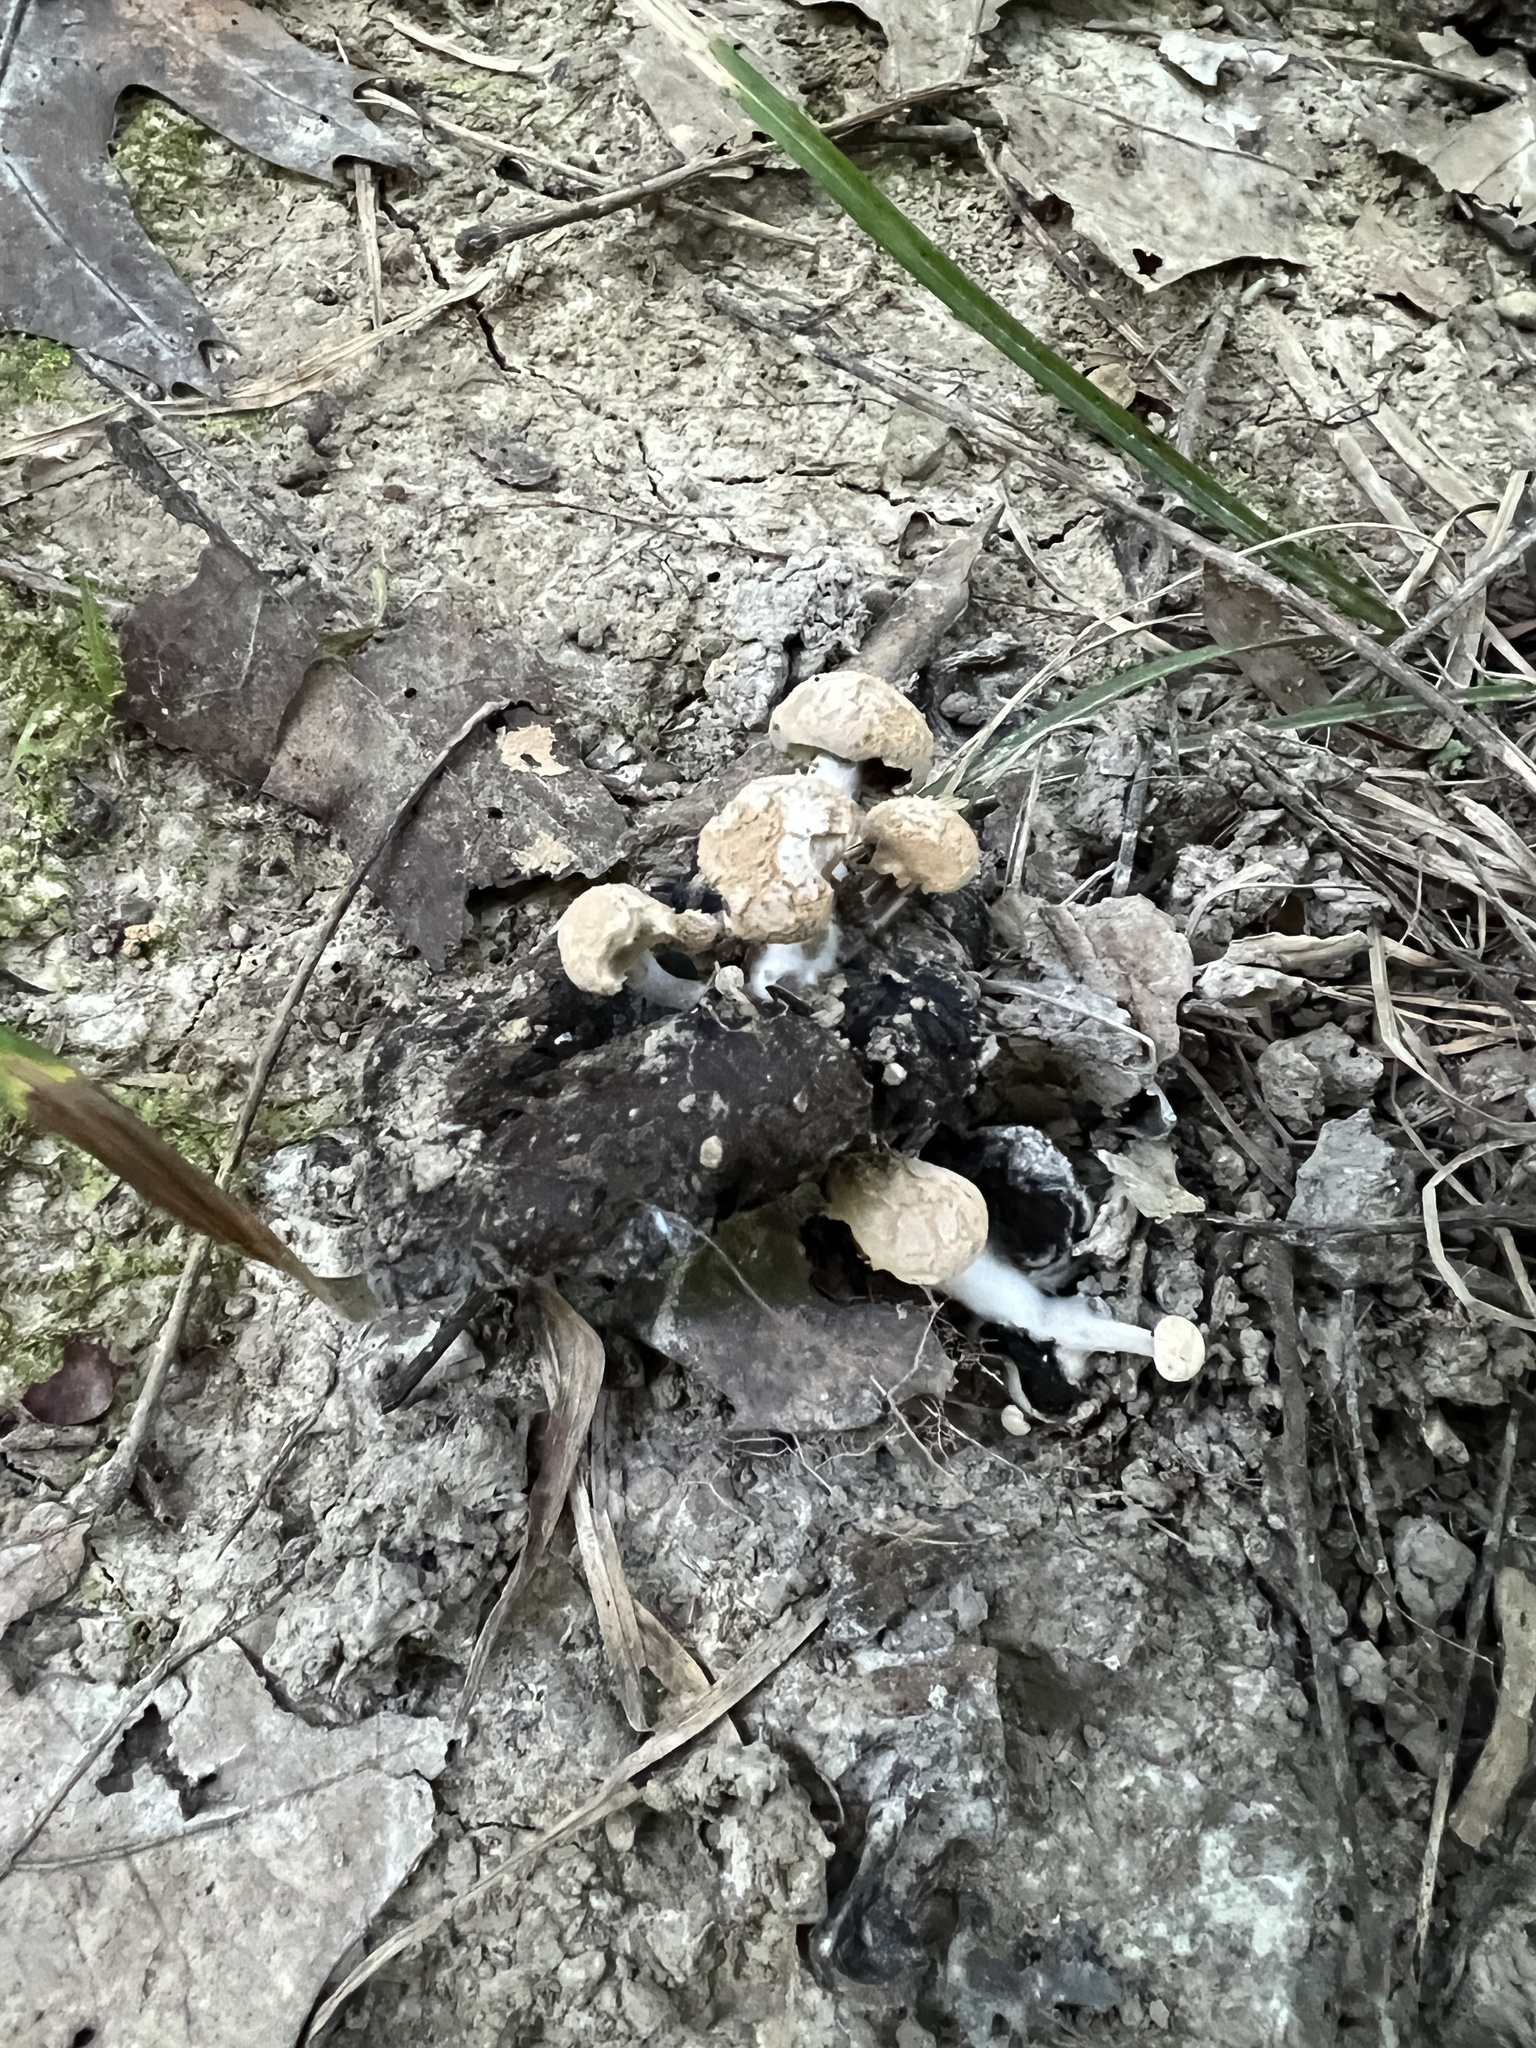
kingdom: Fungi
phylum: Basidiomycota
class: Agaricomycetes
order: Agaricales
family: Lyophyllaceae
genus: Asterophora
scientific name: Asterophora lycoperdoides
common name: Pick-a-back toadstool
